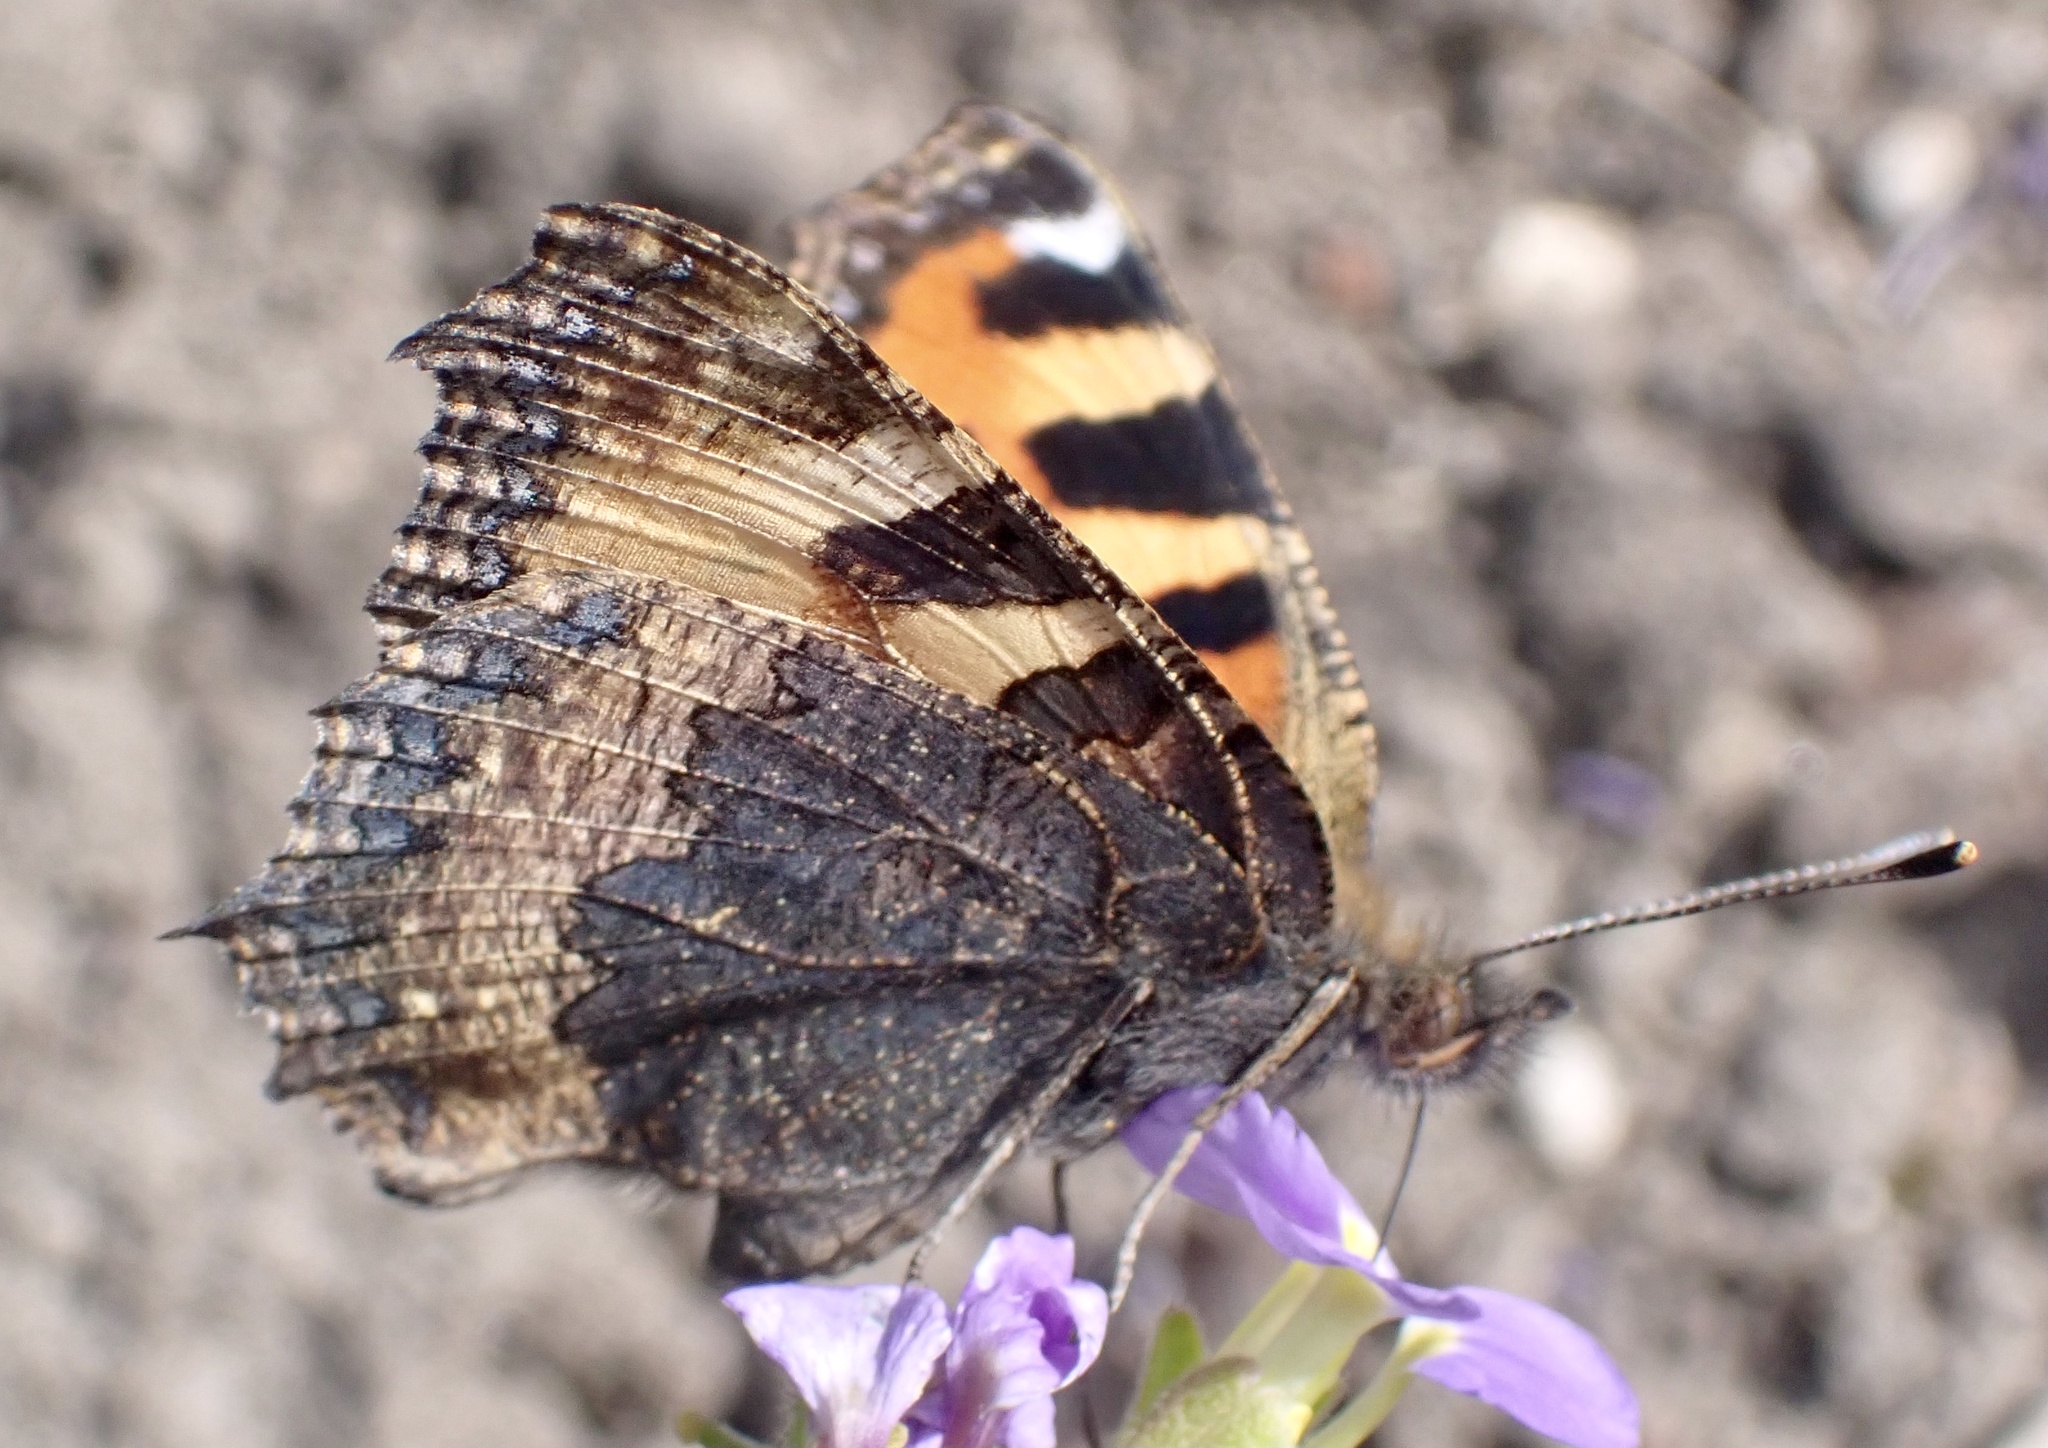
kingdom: Animalia
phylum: Arthropoda
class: Insecta
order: Lepidoptera
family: Nymphalidae
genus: Aglais
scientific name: Aglais urticae
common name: Small tortoiseshell
